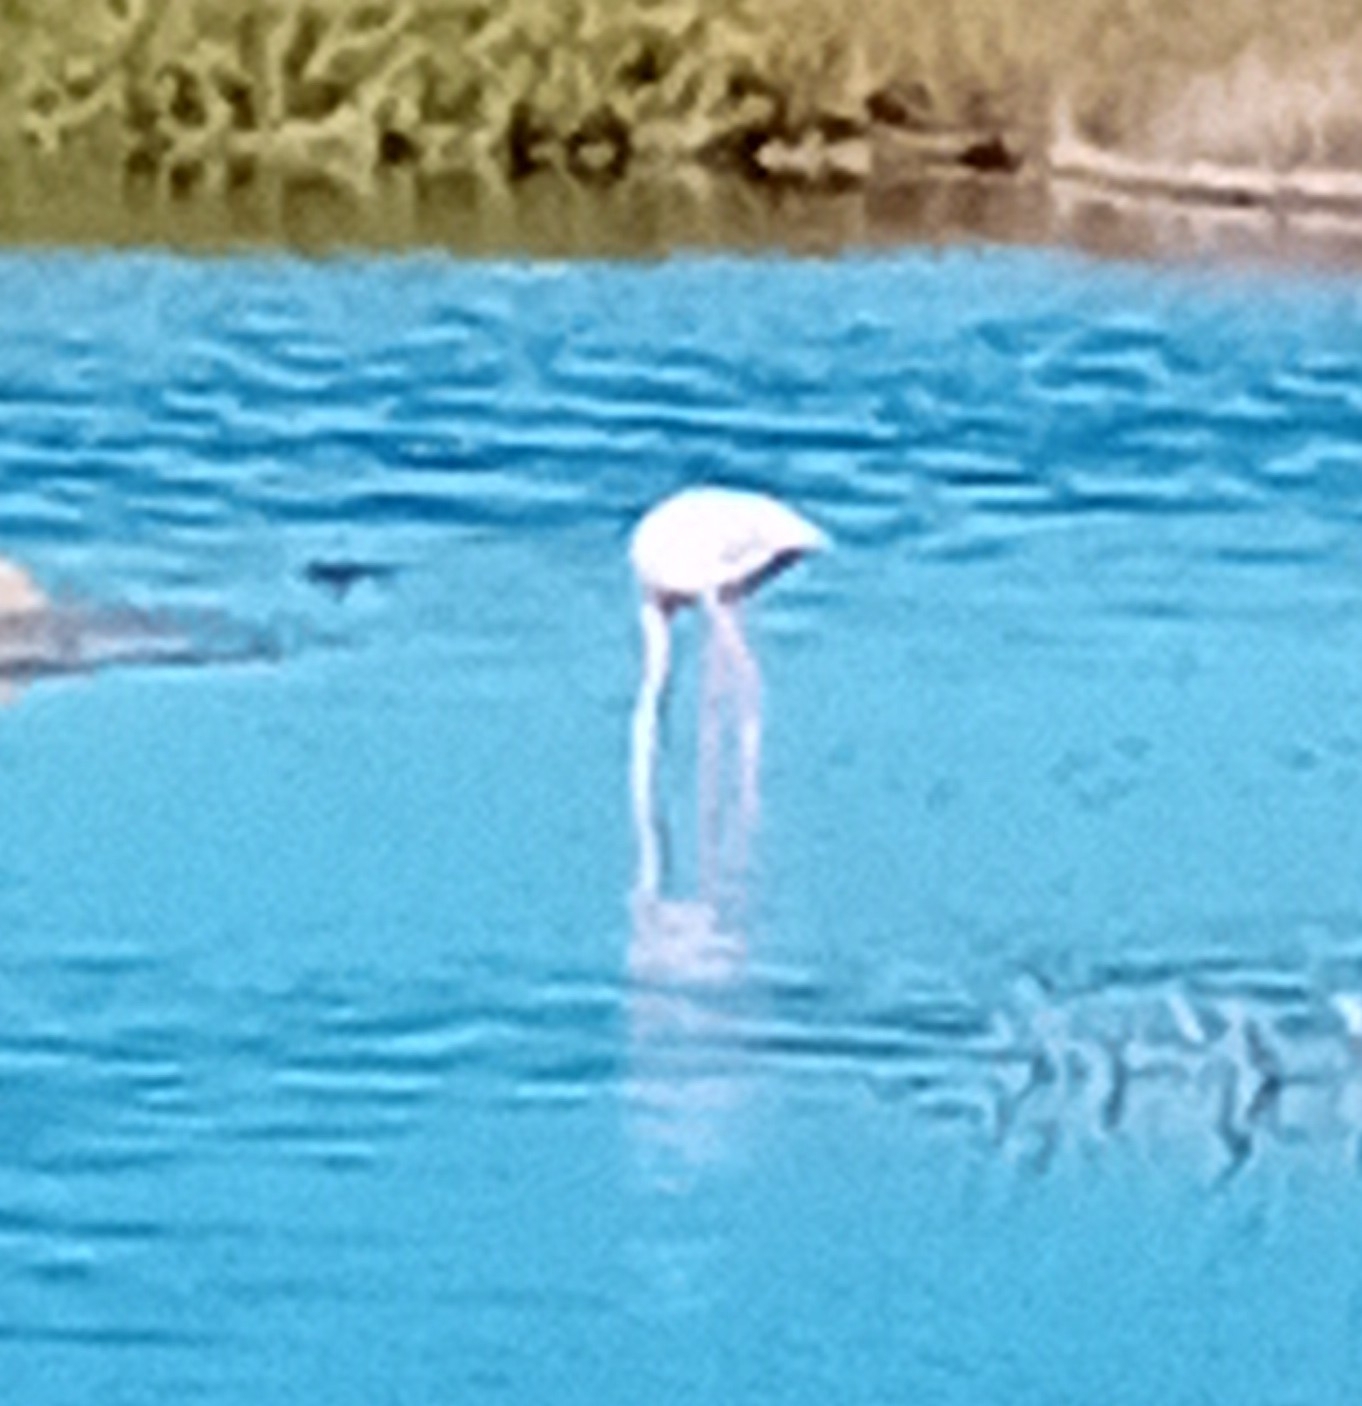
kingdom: Animalia
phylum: Chordata
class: Aves
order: Phoenicopteriformes
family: Phoenicopteridae
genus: Phoenicopterus
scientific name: Phoenicopterus roseus
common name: Greater flamingo
